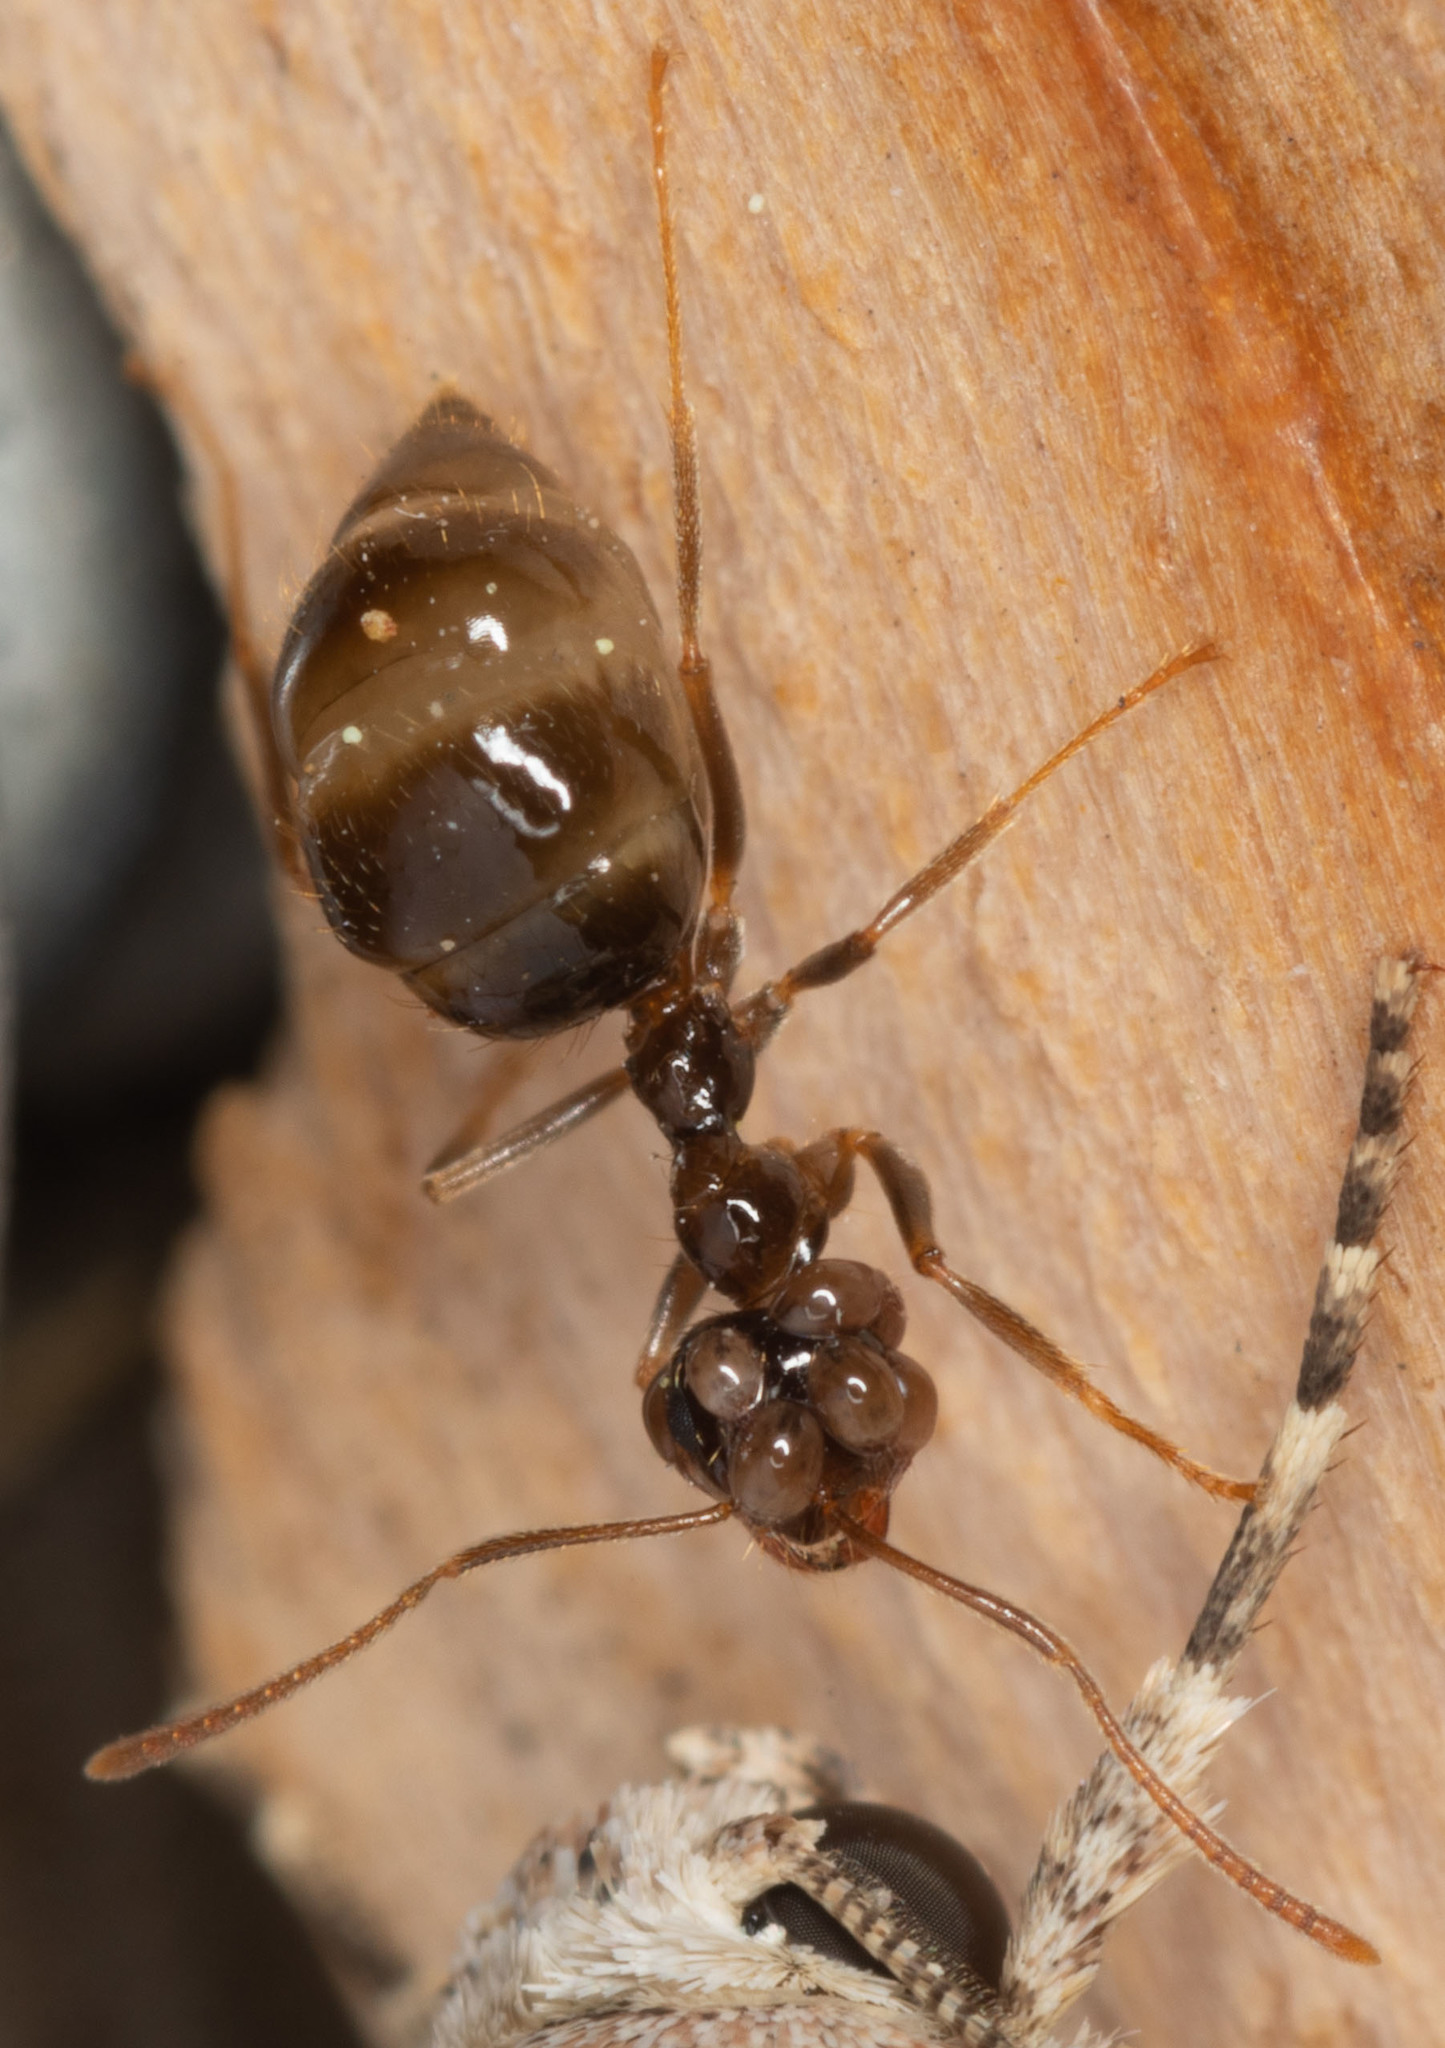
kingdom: Animalia
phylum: Arthropoda
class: Insecta
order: Hymenoptera
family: Formicidae
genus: Prenolepis
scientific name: Prenolepis imparis
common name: Small honey ant
